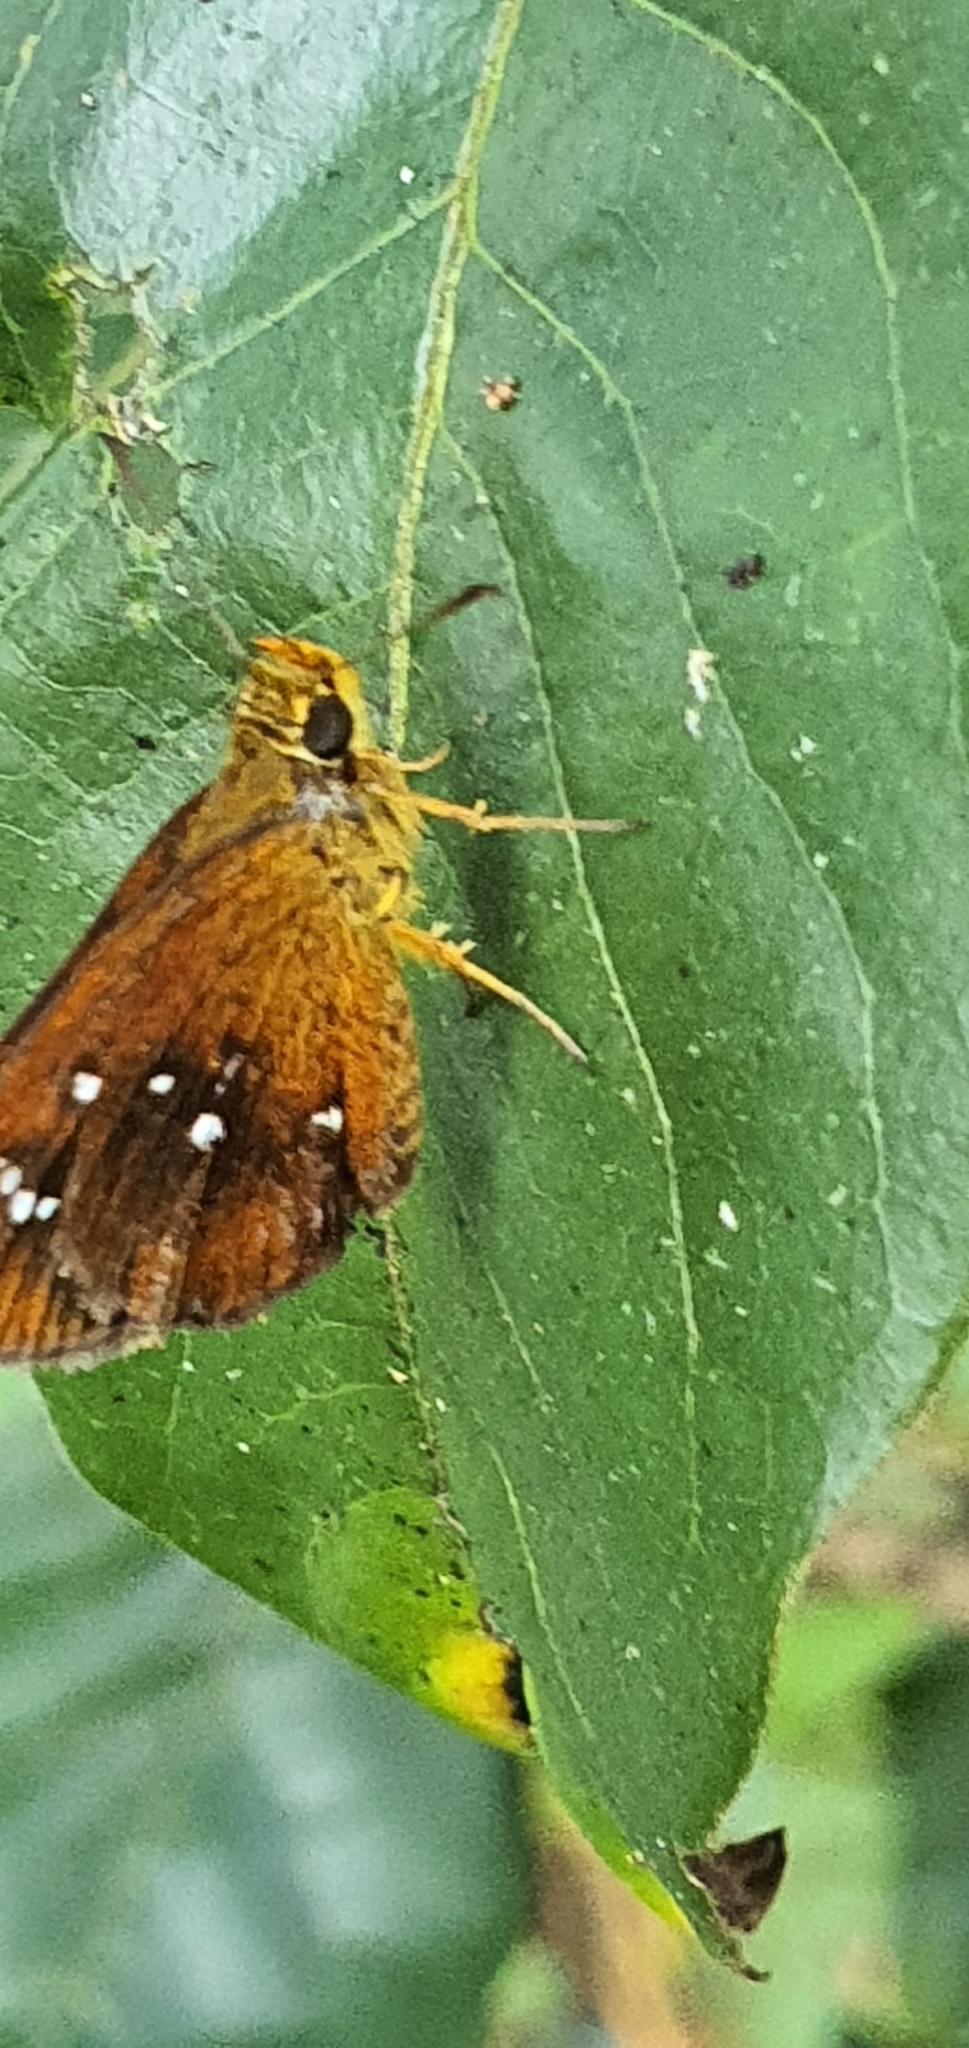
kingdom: Animalia
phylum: Arthropoda
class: Insecta
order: Lepidoptera
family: Hesperiidae
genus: Iambrix
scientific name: Iambrix salsala
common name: Chestnut bob
